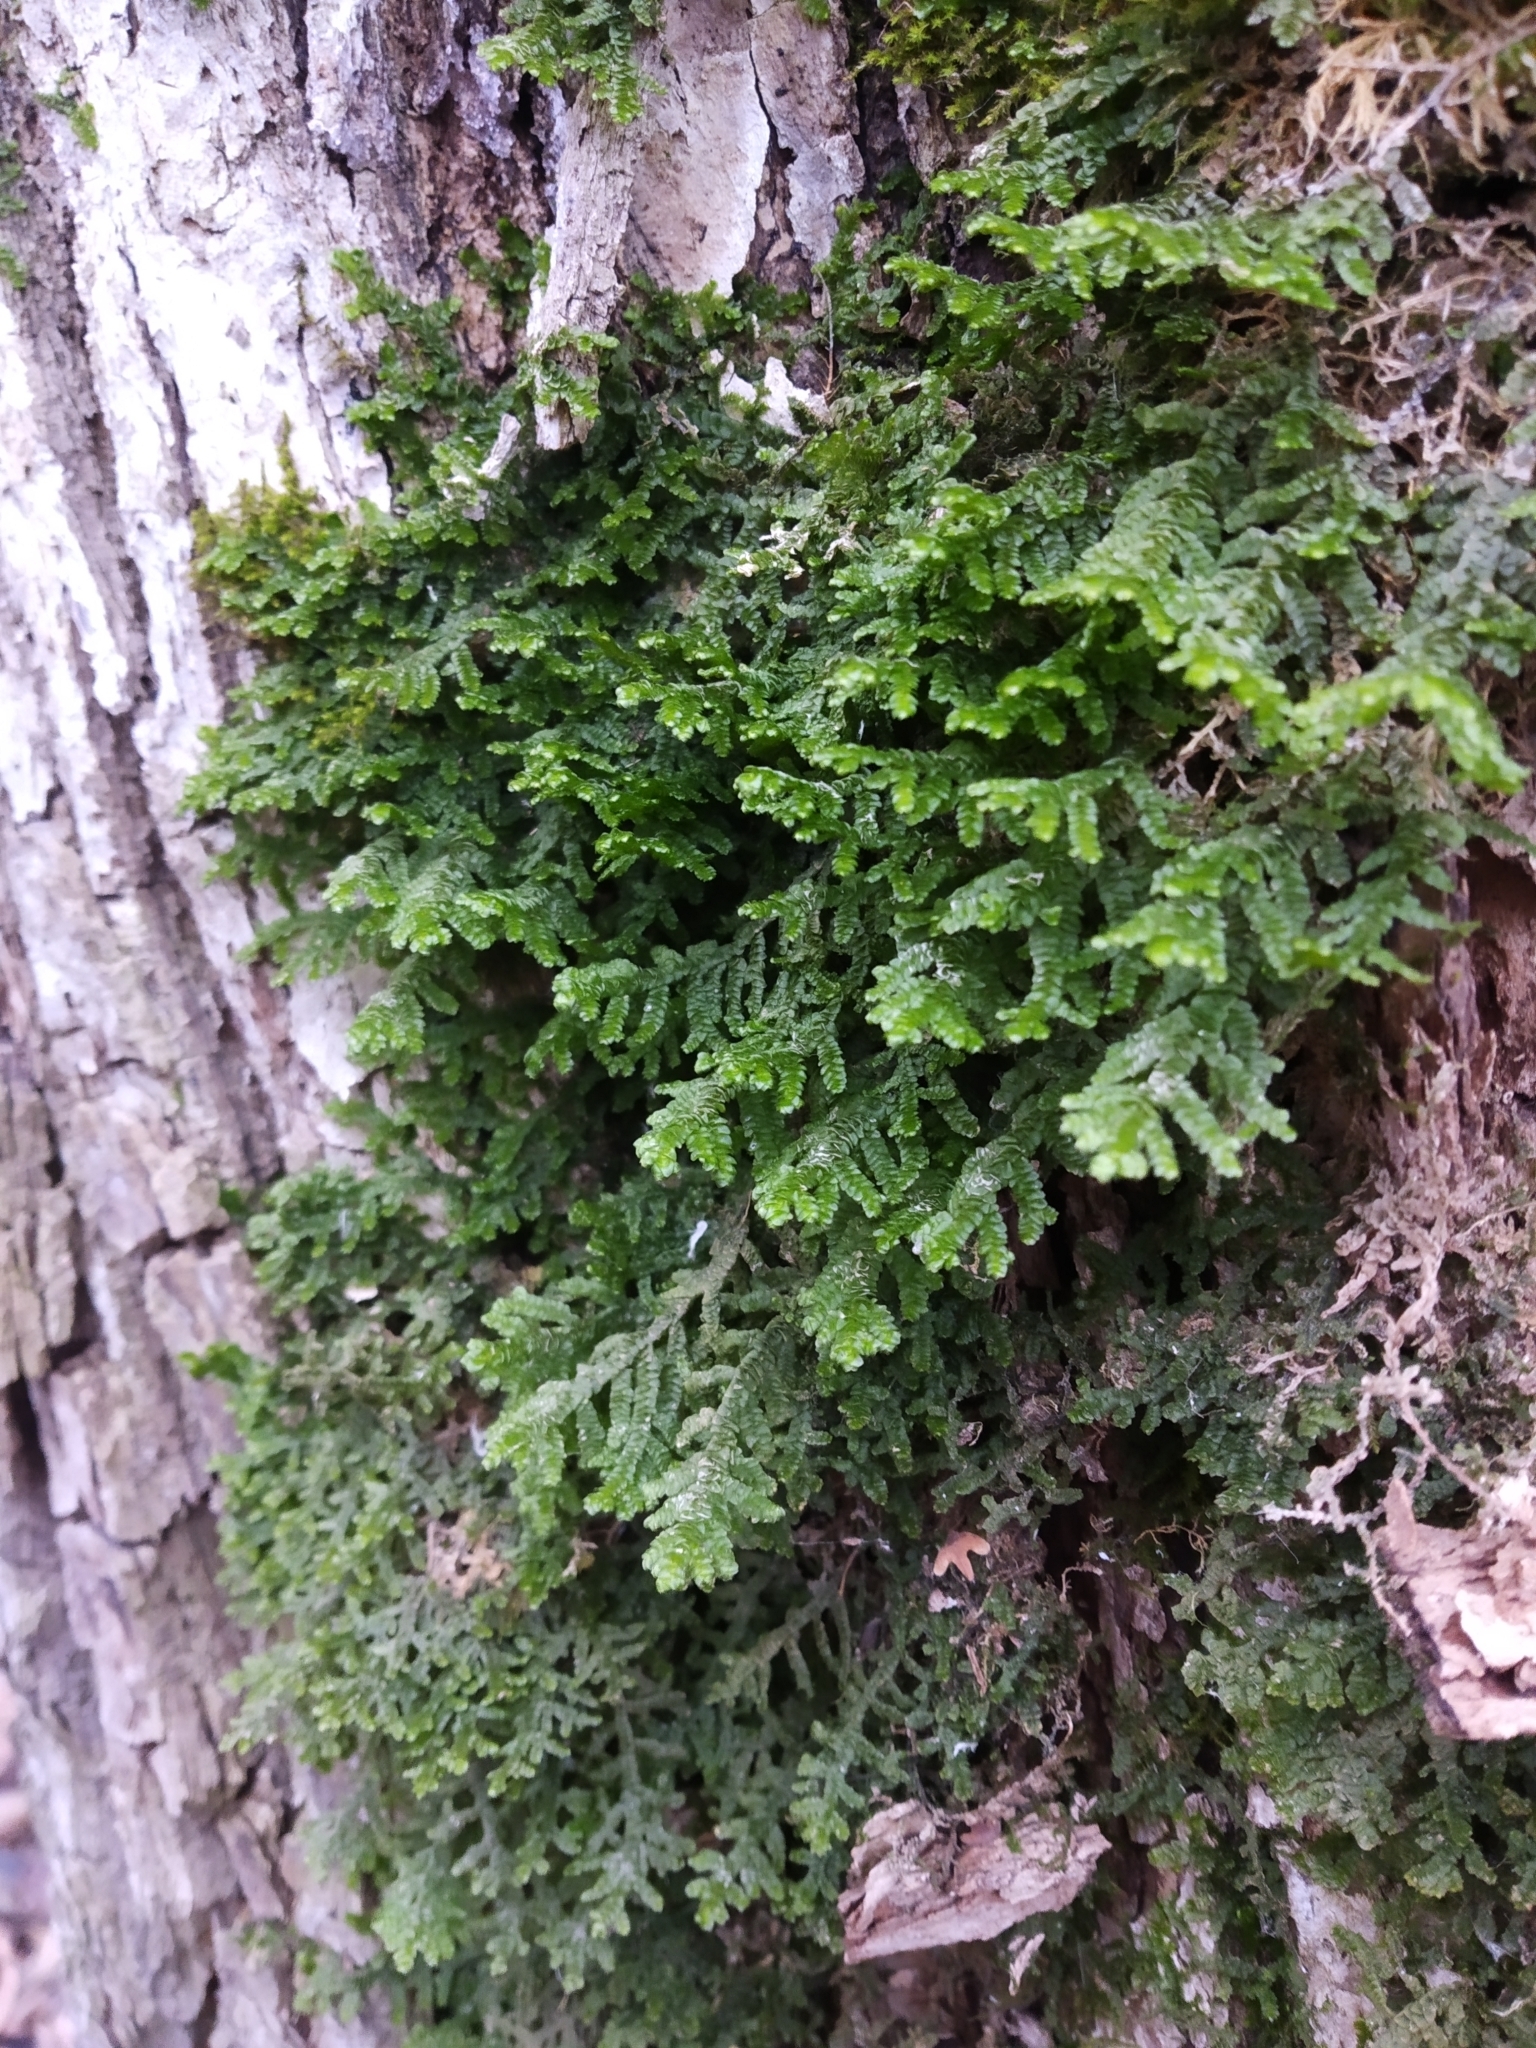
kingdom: Plantae
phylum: Marchantiophyta
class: Jungermanniopsida
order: Porellales
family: Porellaceae
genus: Porella
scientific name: Porella platyphylla
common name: Wall scalewort
